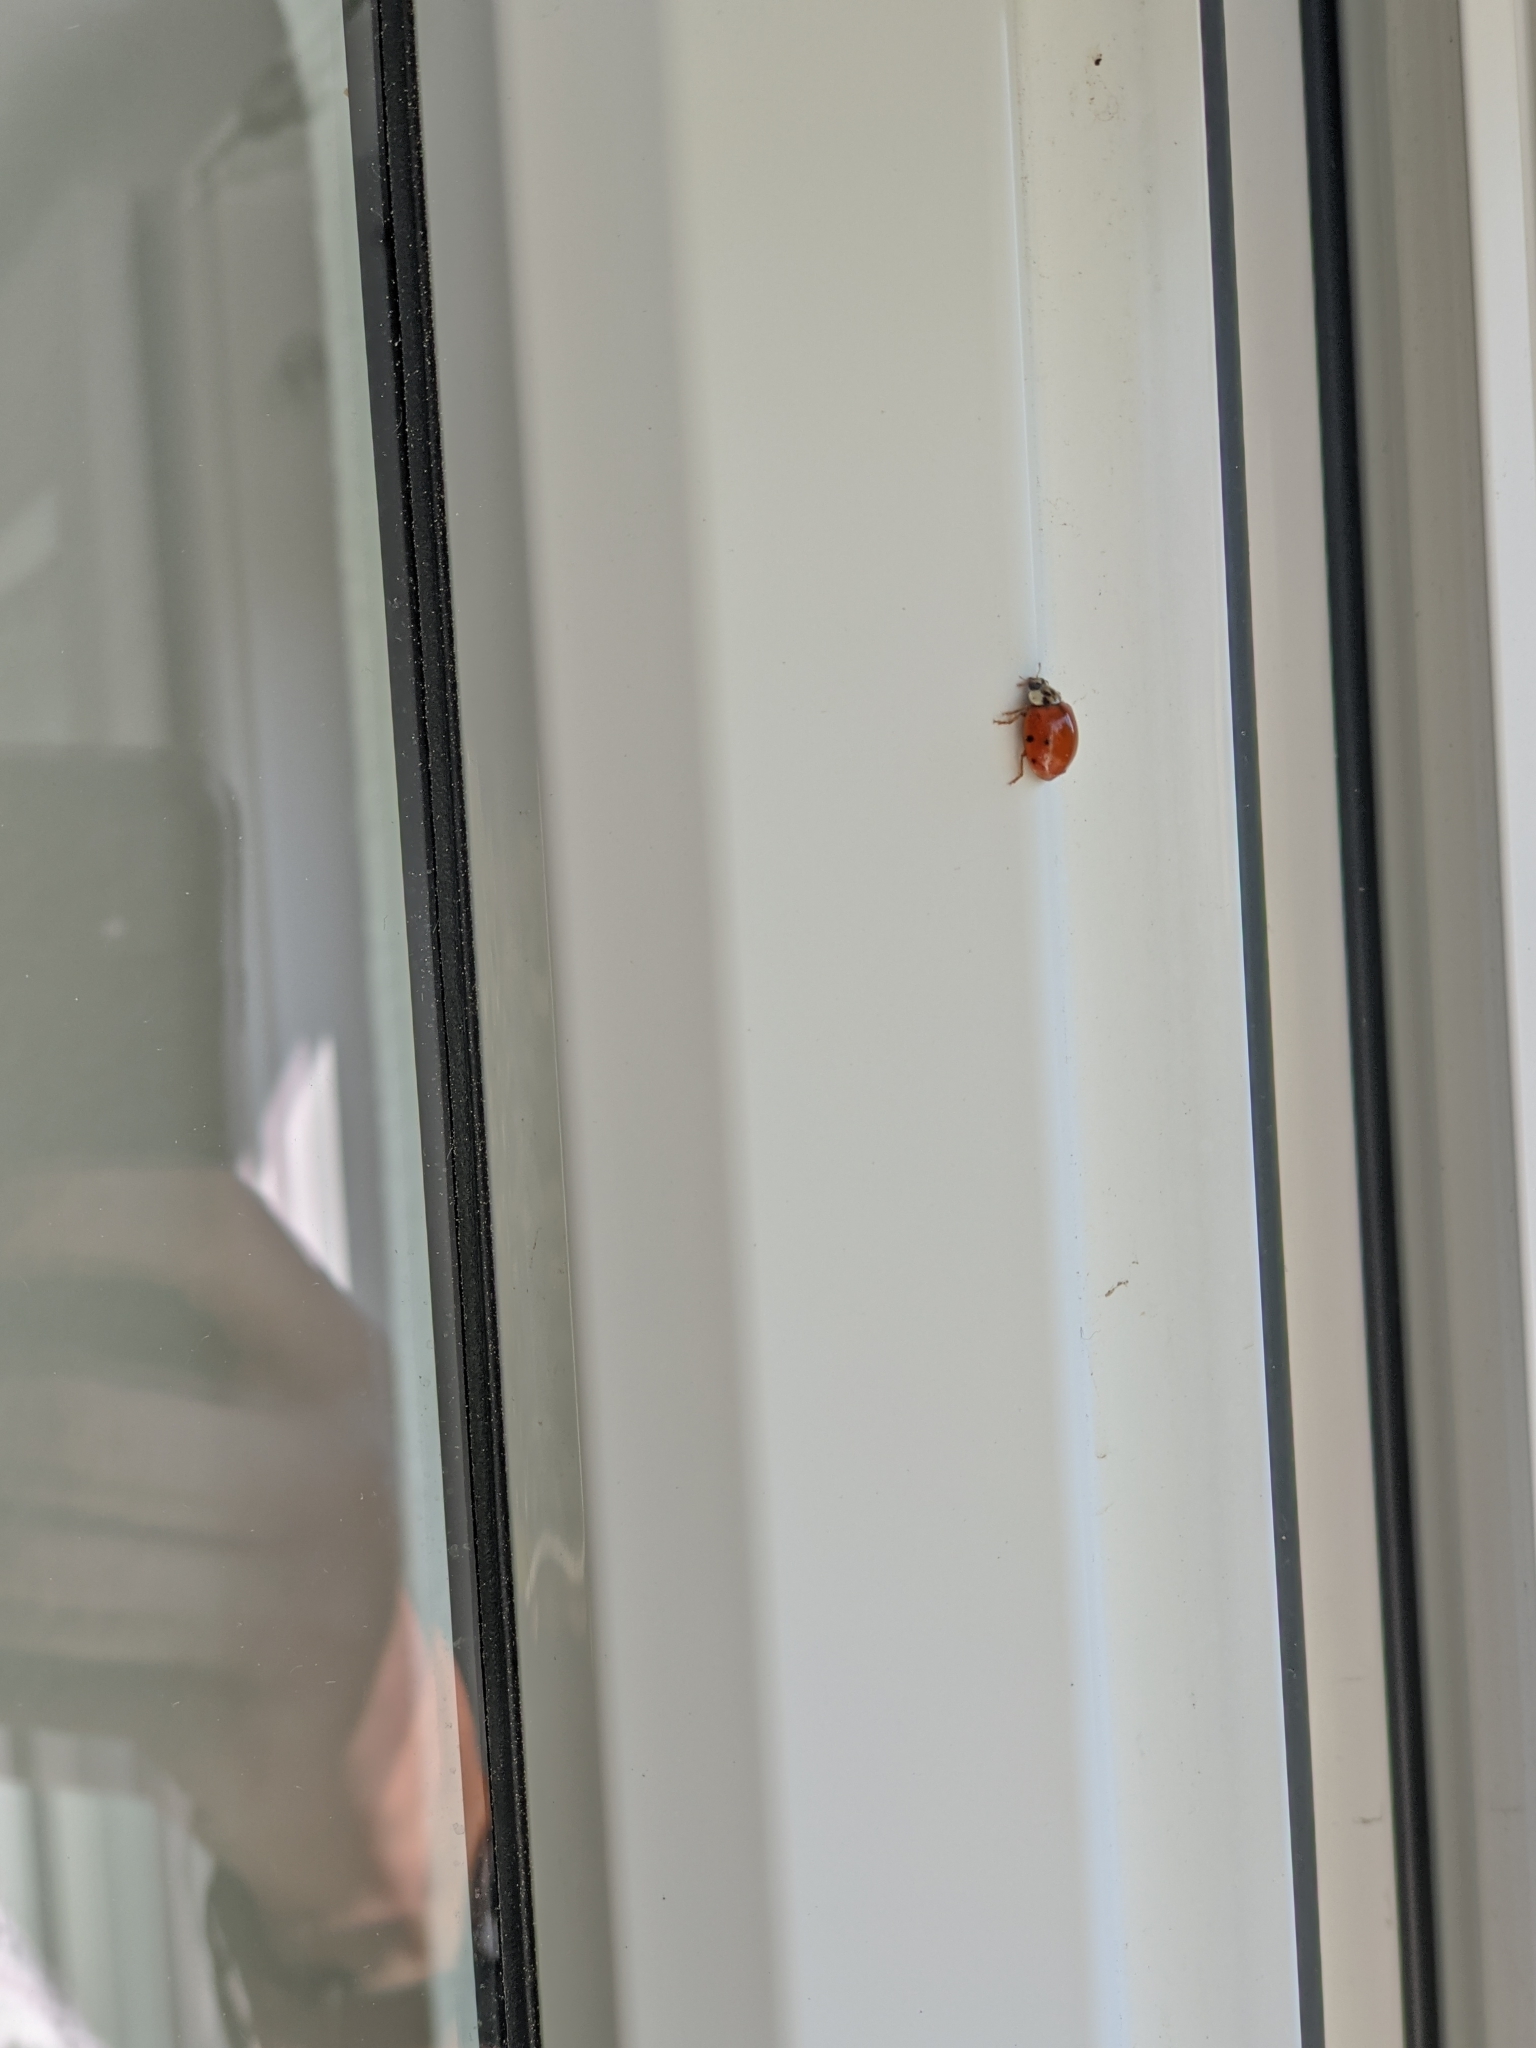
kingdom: Animalia
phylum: Arthropoda
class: Insecta
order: Coleoptera
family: Coccinellidae
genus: Harmonia
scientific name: Harmonia axyridis
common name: Harlequin ladybird
